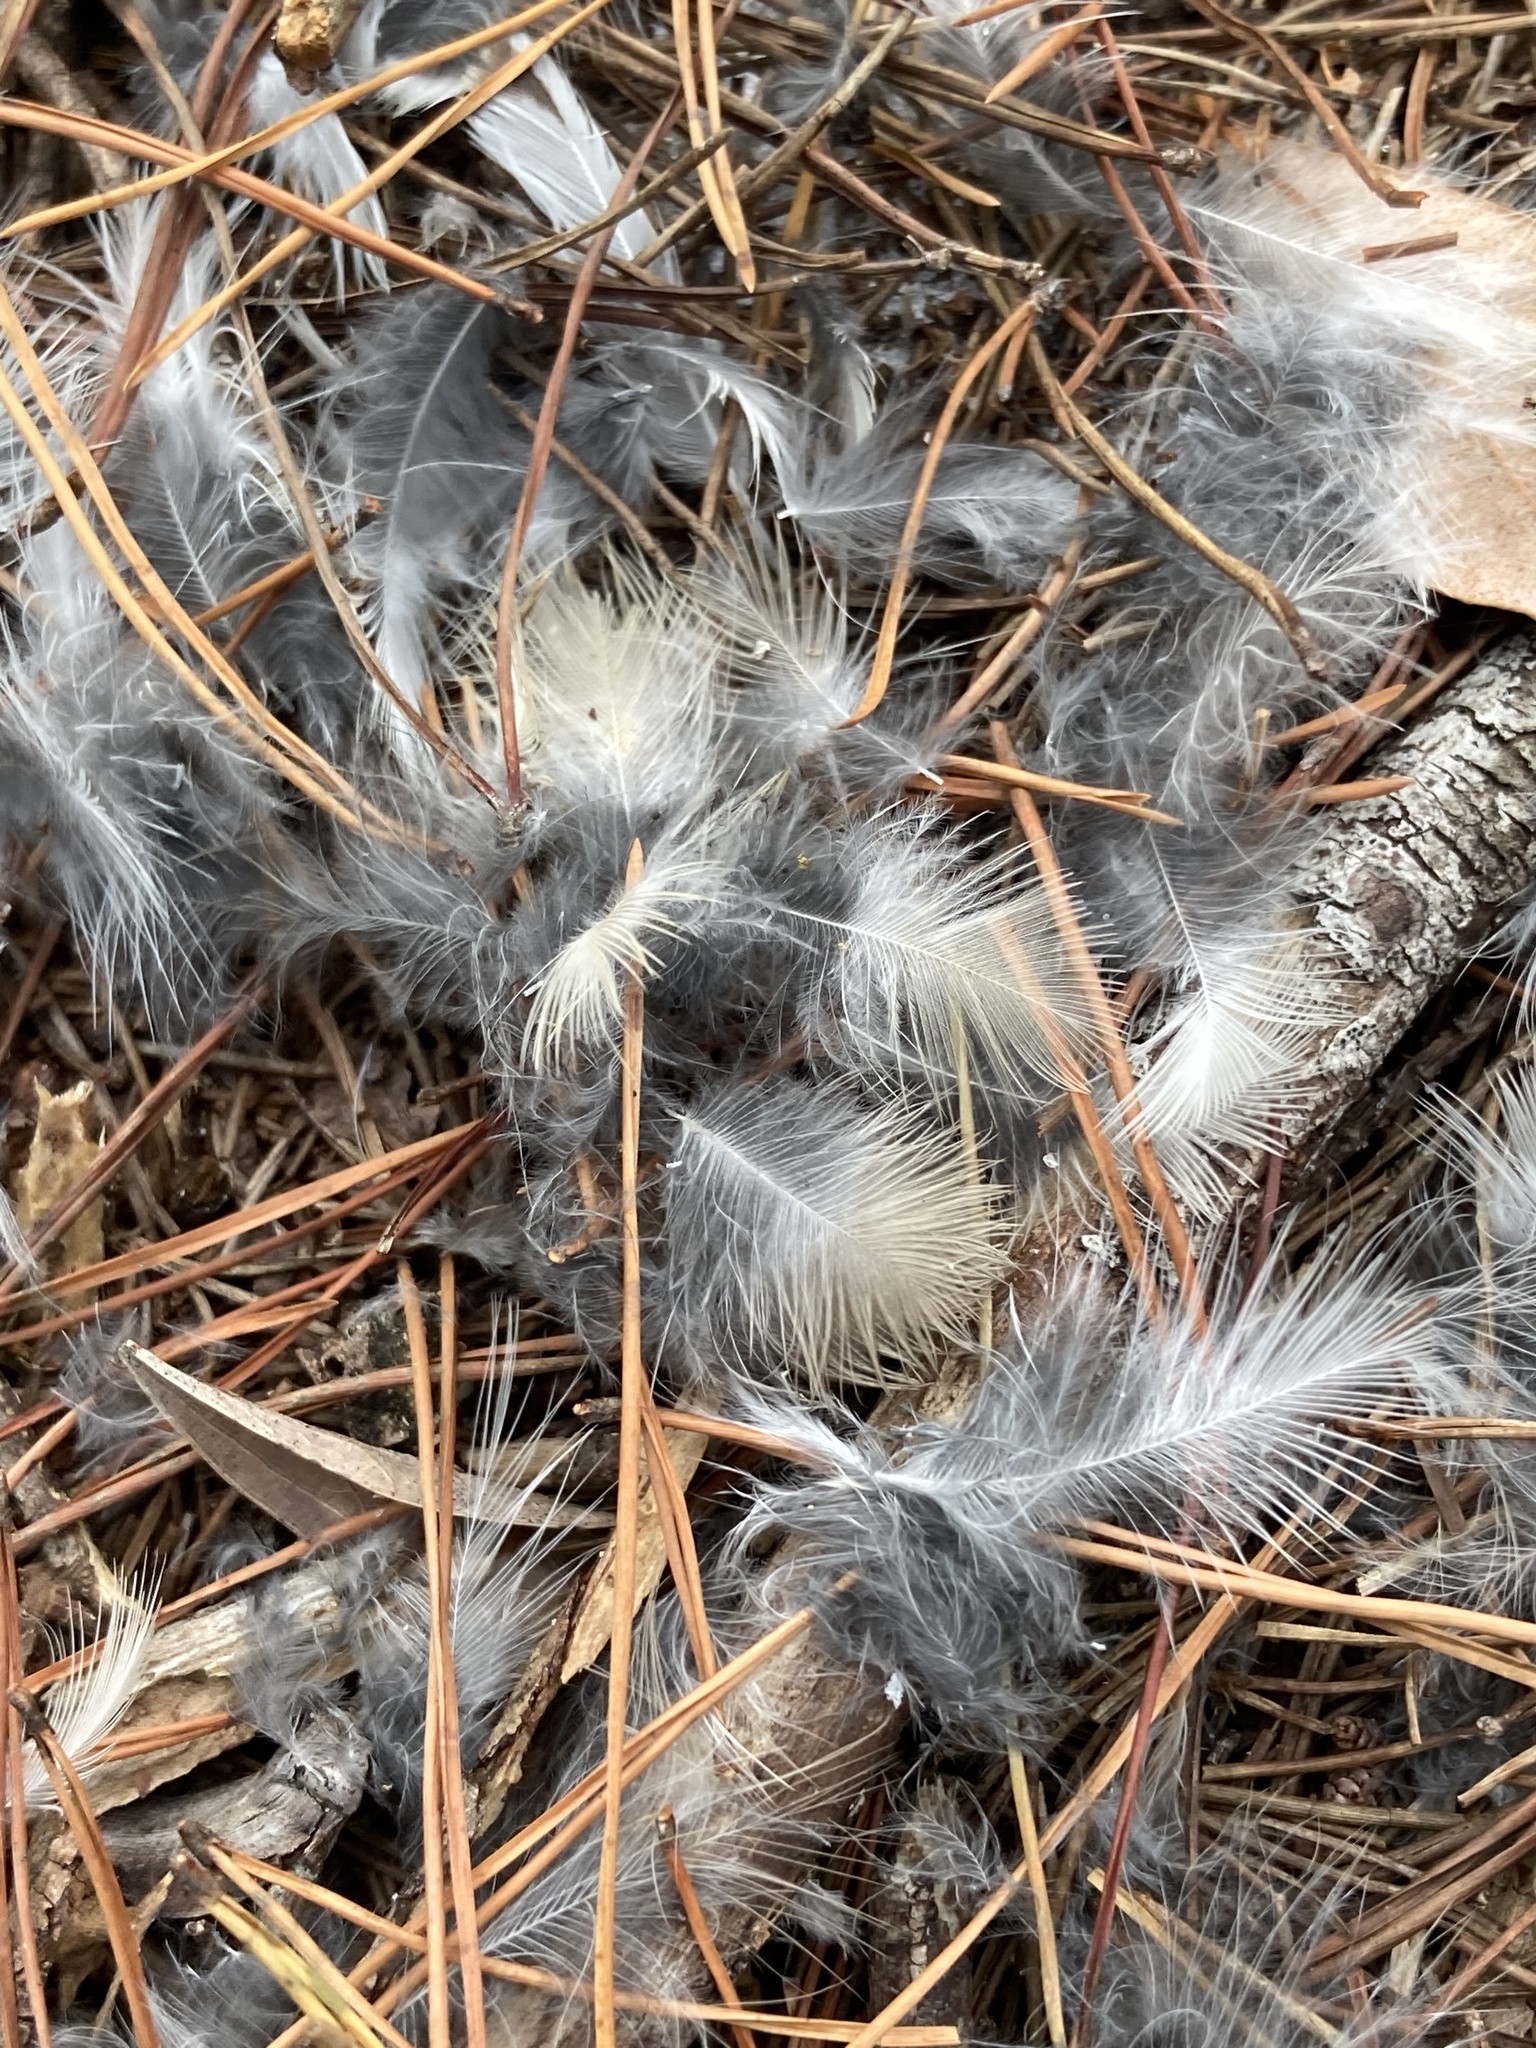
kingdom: Animalia
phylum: Chordata
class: Aves
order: Passeriformes
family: Mimidae
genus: Mimus
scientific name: Mimus polyglottos
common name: Northern mockingbird
